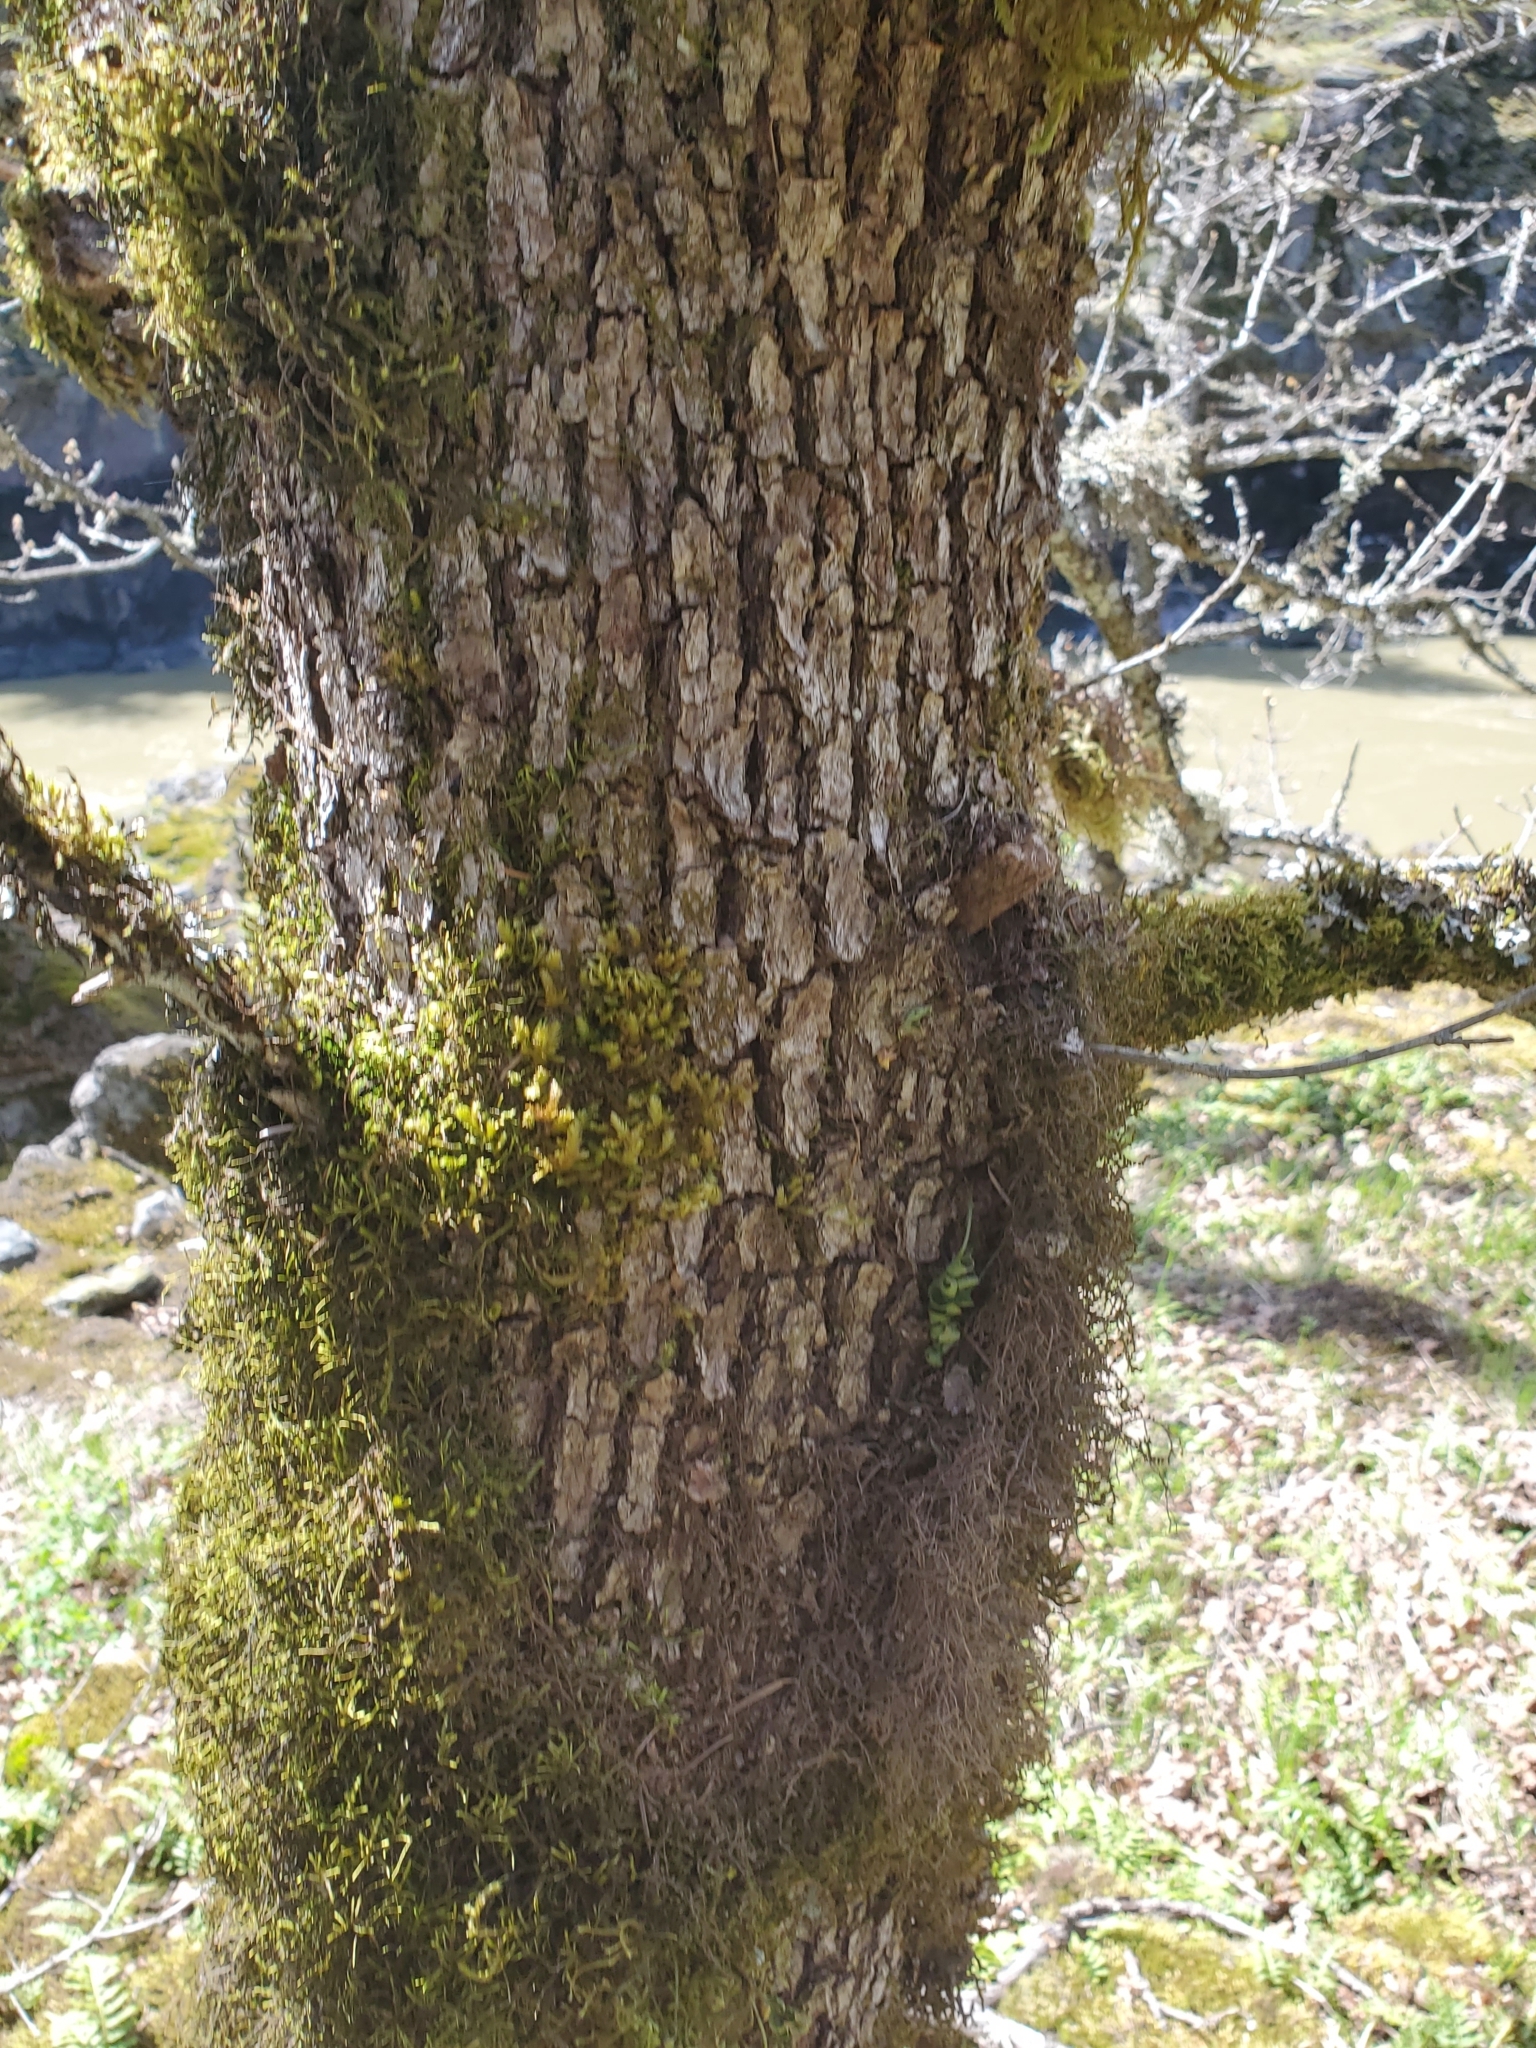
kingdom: Plantae
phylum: Tracheophyta
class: Magnoliopsida
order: Fagales
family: Fagaceae
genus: Quercus
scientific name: Quercus garryana
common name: Garry oak
